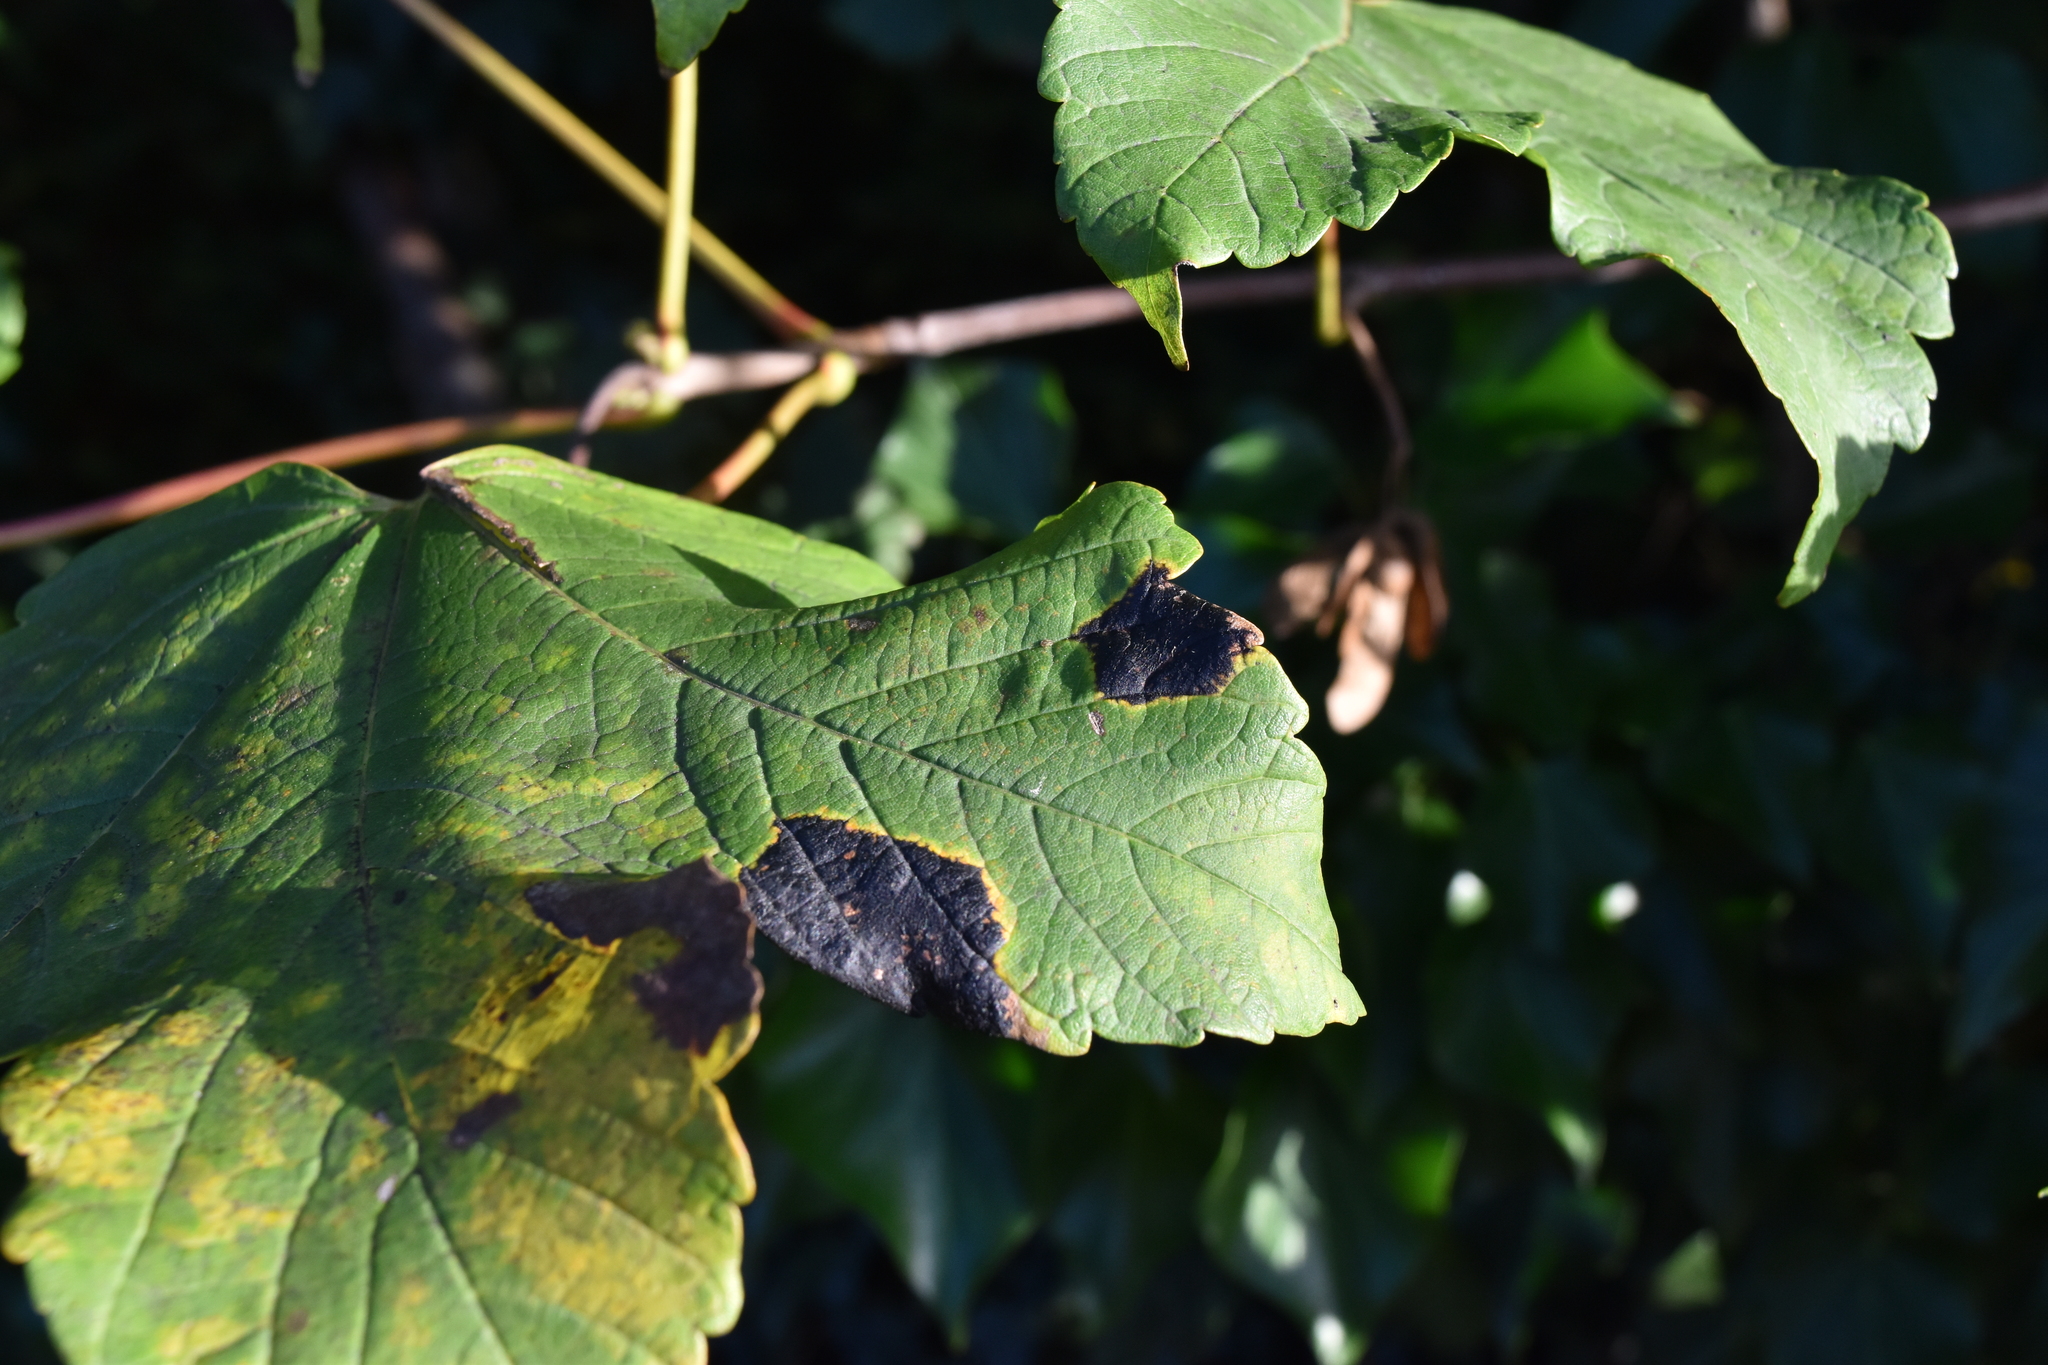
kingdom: Fungi
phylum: Ascomycota
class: Leotiomycetes
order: Rhytismatales
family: Rhytismataceae
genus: Rhytisma
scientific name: Rhytisma acerinum
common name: European tar spot
